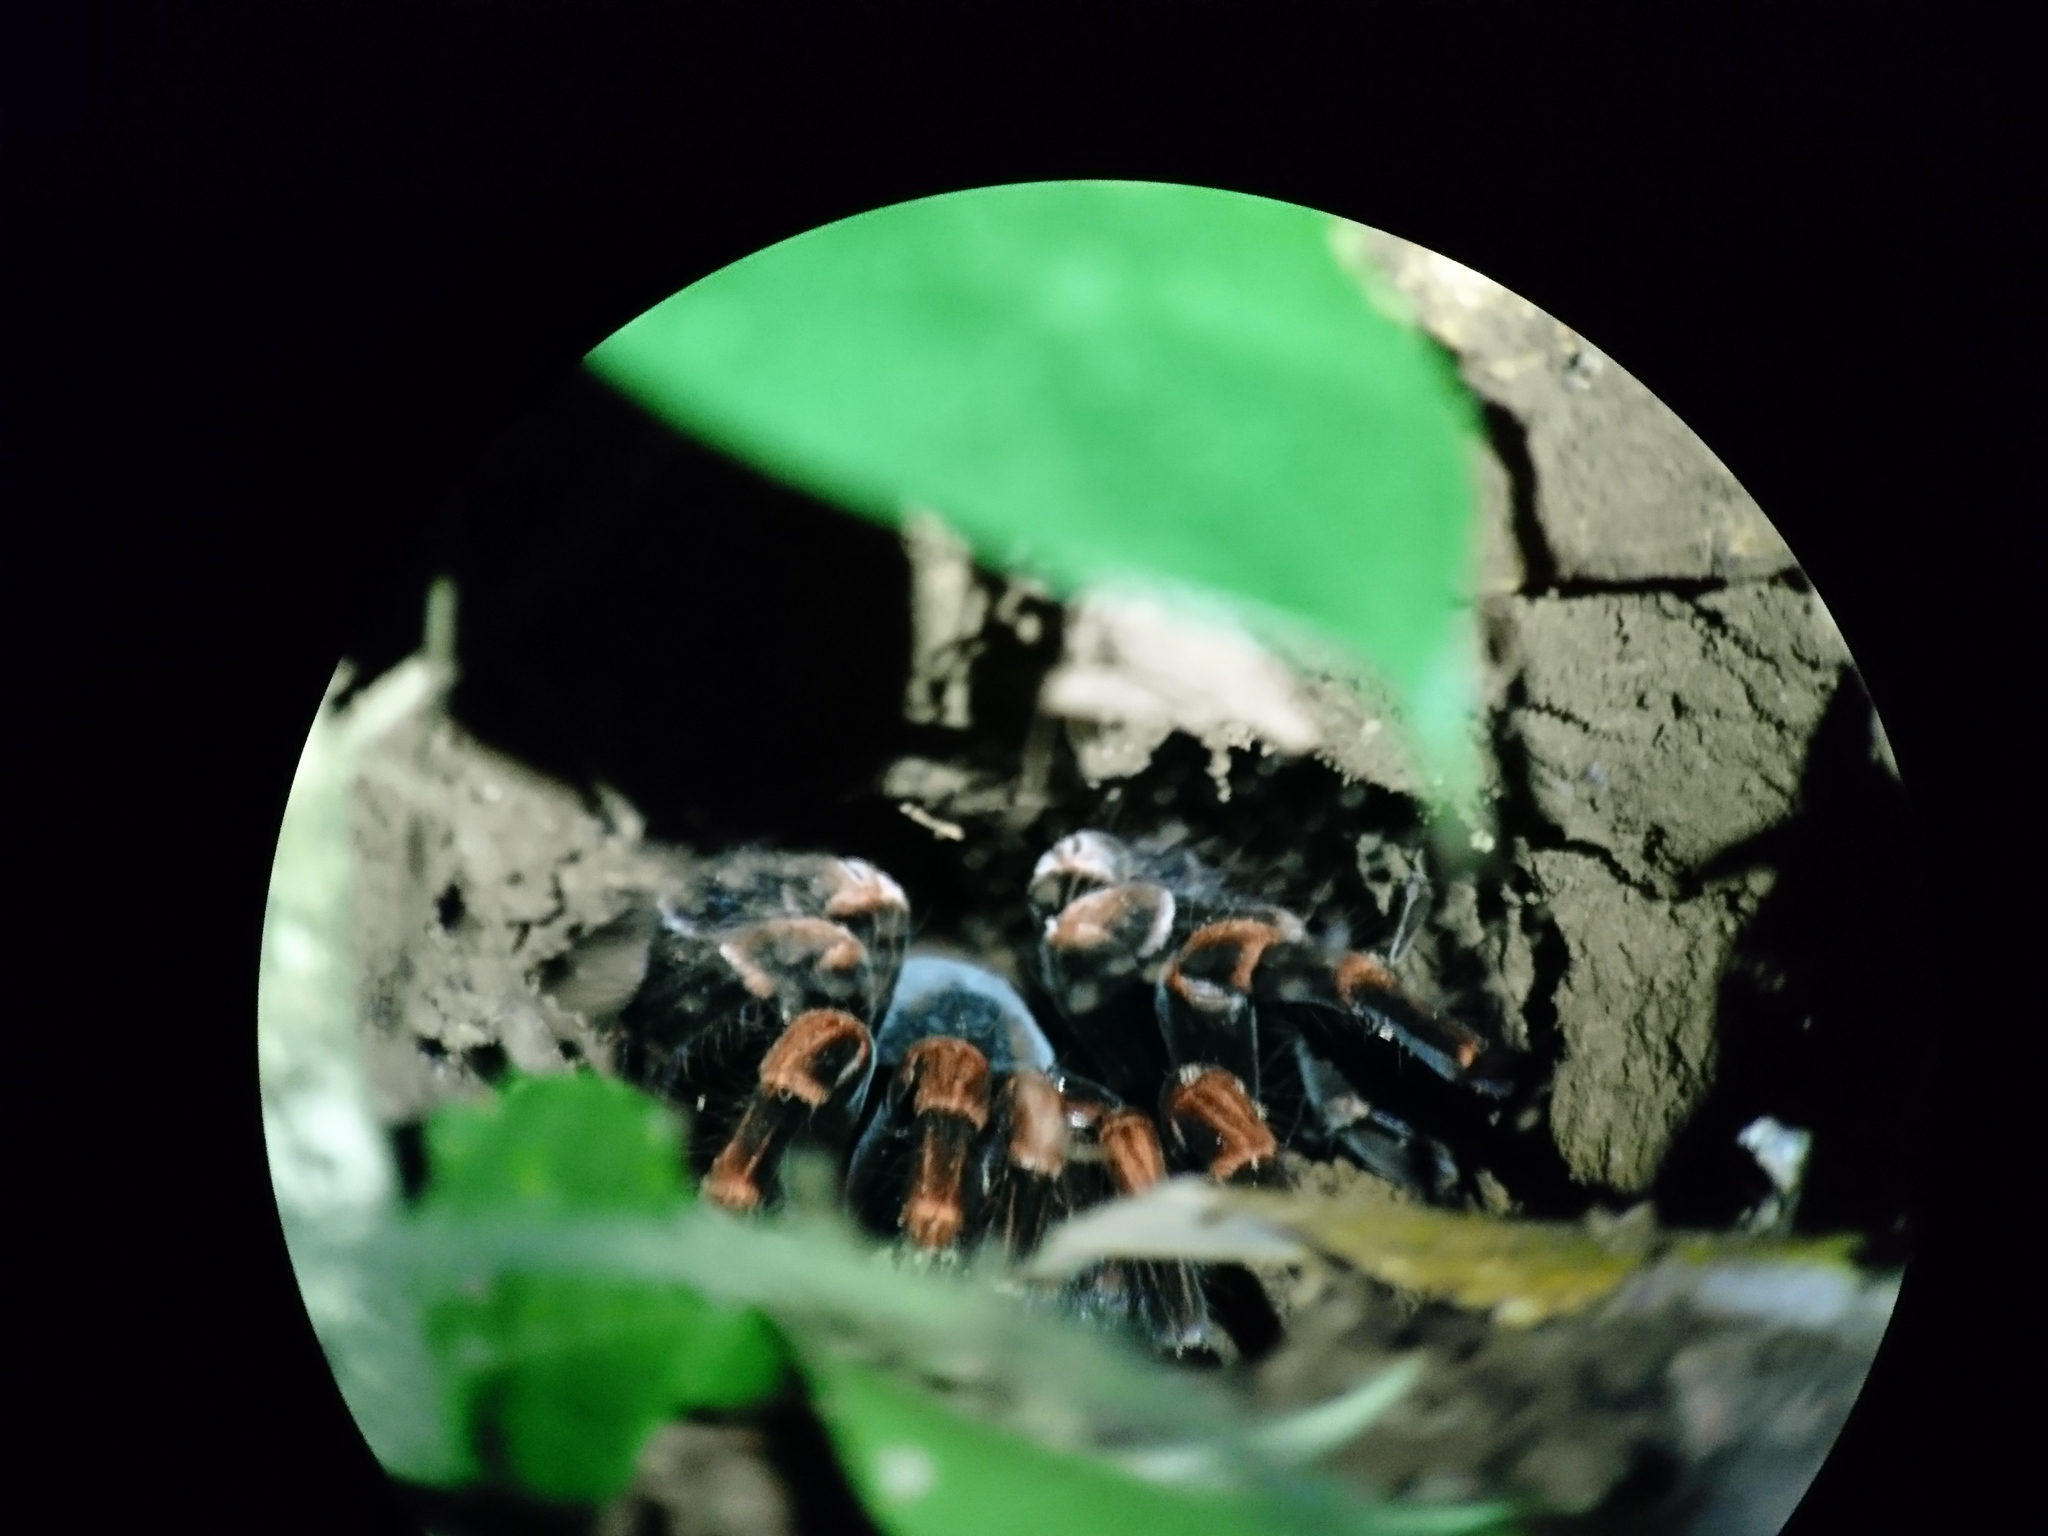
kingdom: Animalia
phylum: Arthropoda
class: Arachnida
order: Araneae
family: Theraphosidae
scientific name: Theraphosidae
